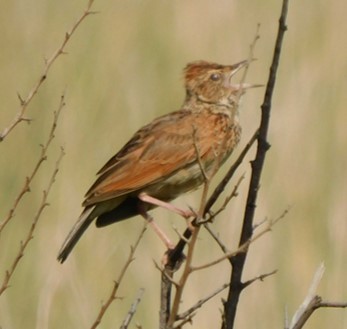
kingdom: Animalia
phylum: Chordata
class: Aves
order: Passeriformes
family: Alaudidae
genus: Mirafra
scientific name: Mirafra africana
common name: Rufous-naped lark
